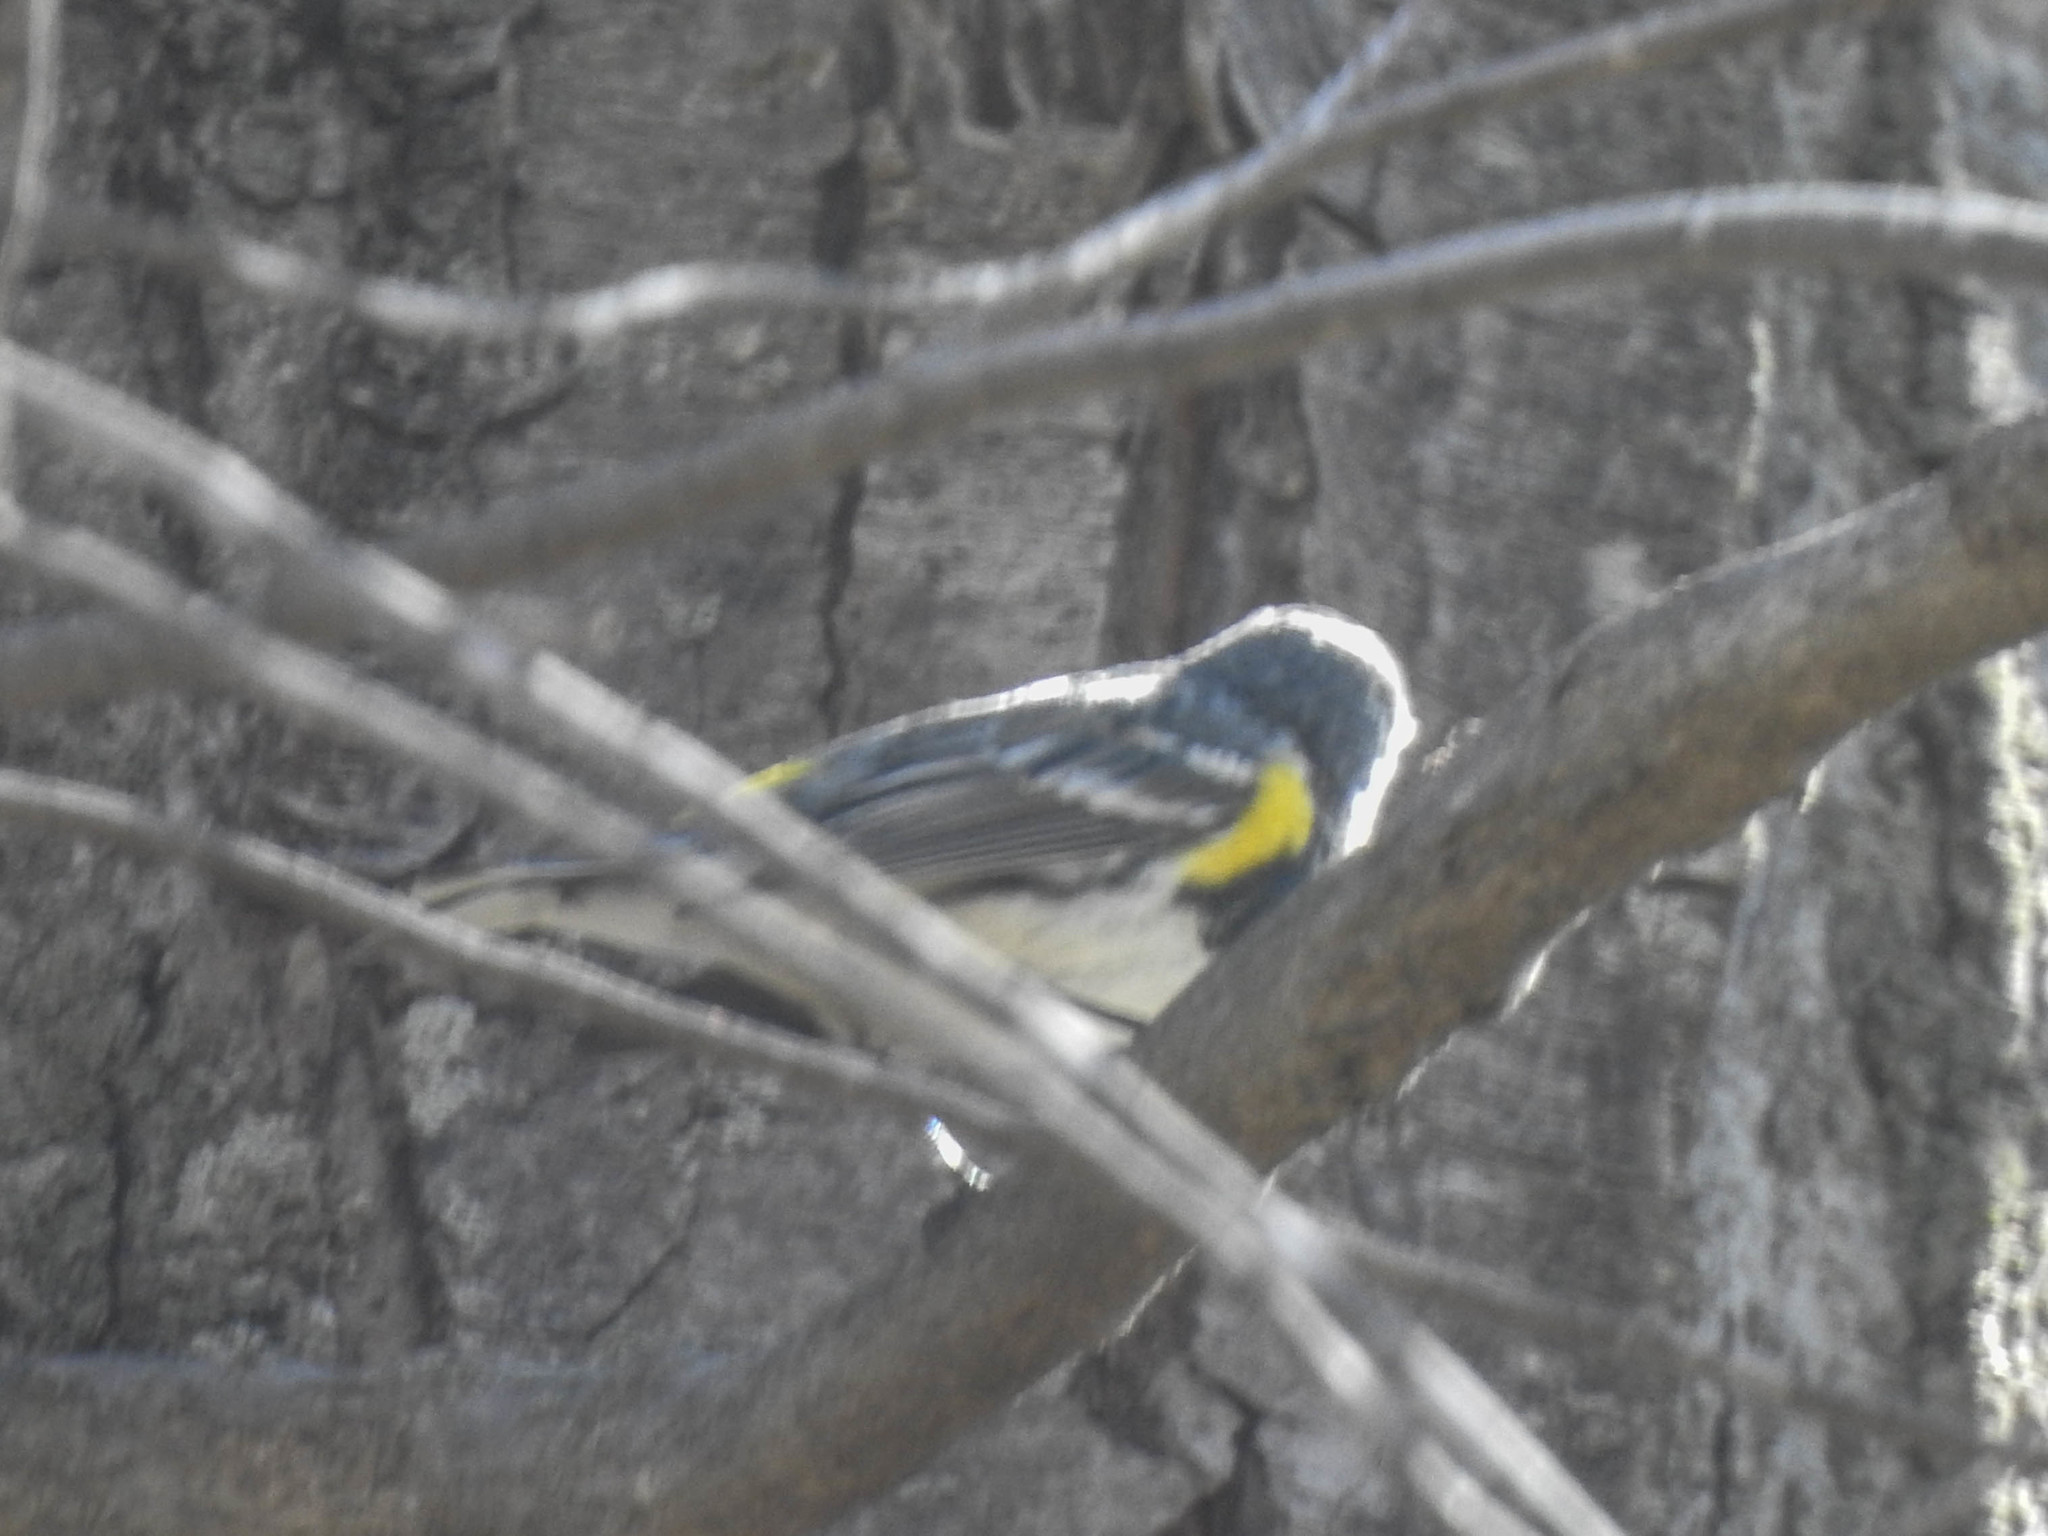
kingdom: Animalia
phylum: Chordata
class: Aves
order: Passeriformes
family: Parulidae
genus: Setophaga
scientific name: Setophaga coronata
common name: Myrtle warbler
